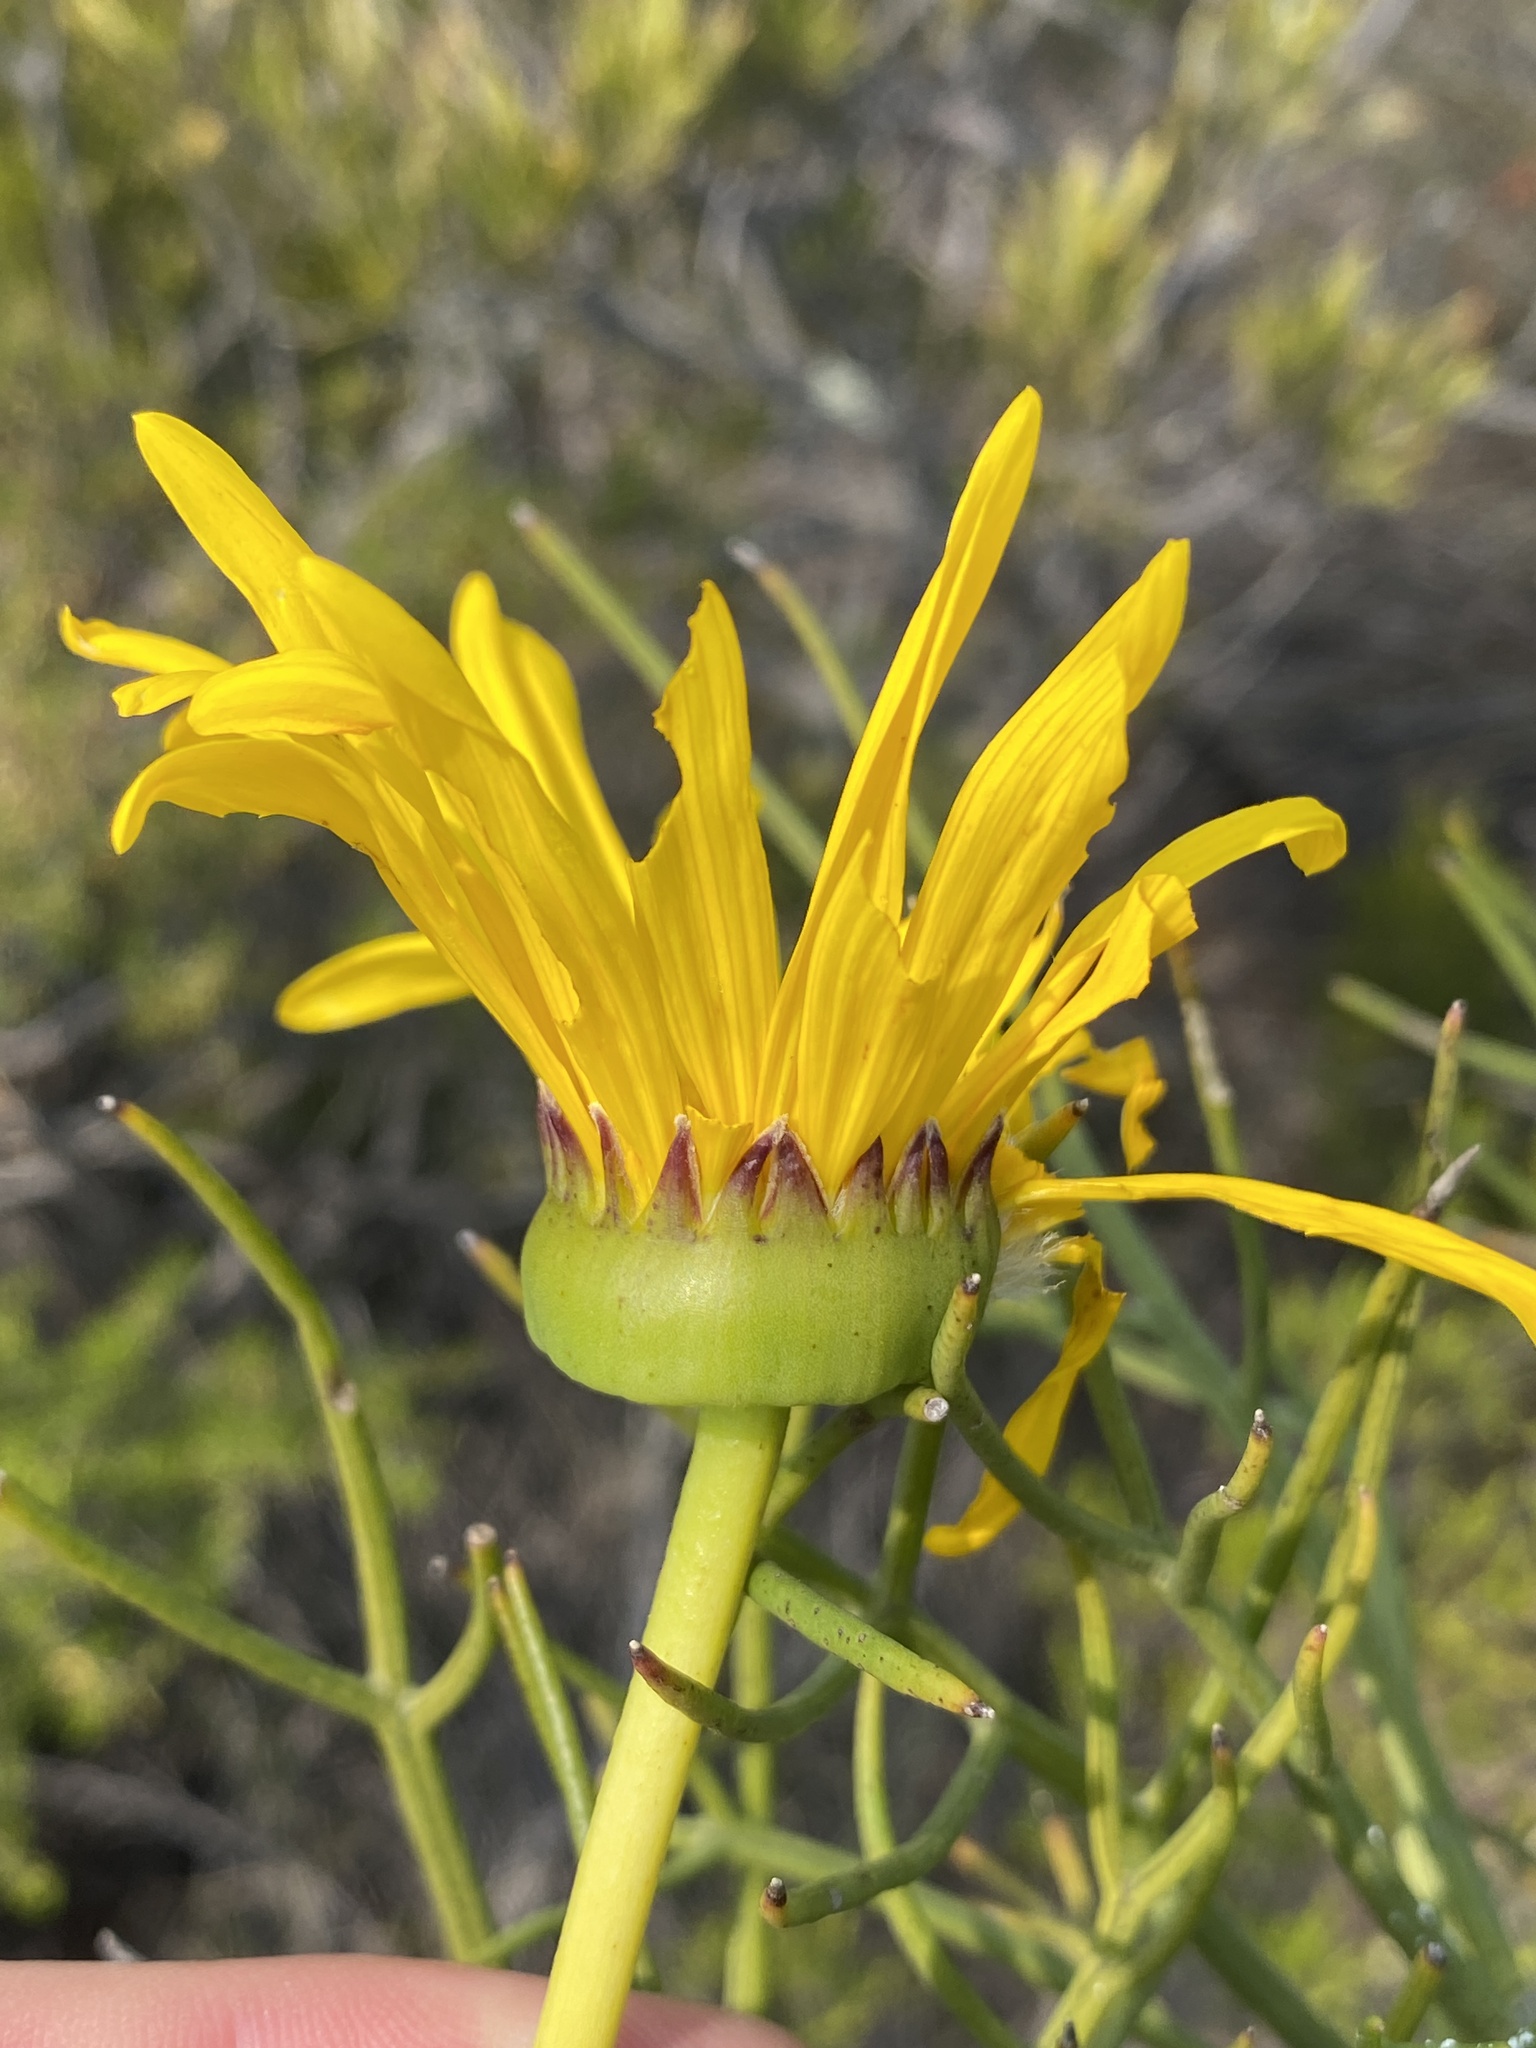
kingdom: Plantae
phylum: Tracheophyta
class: Magnoliopsida
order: Asterales
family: Asteraceae
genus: Euryops
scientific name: Euryops speciosissimus
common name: Clanwilliam daisy
